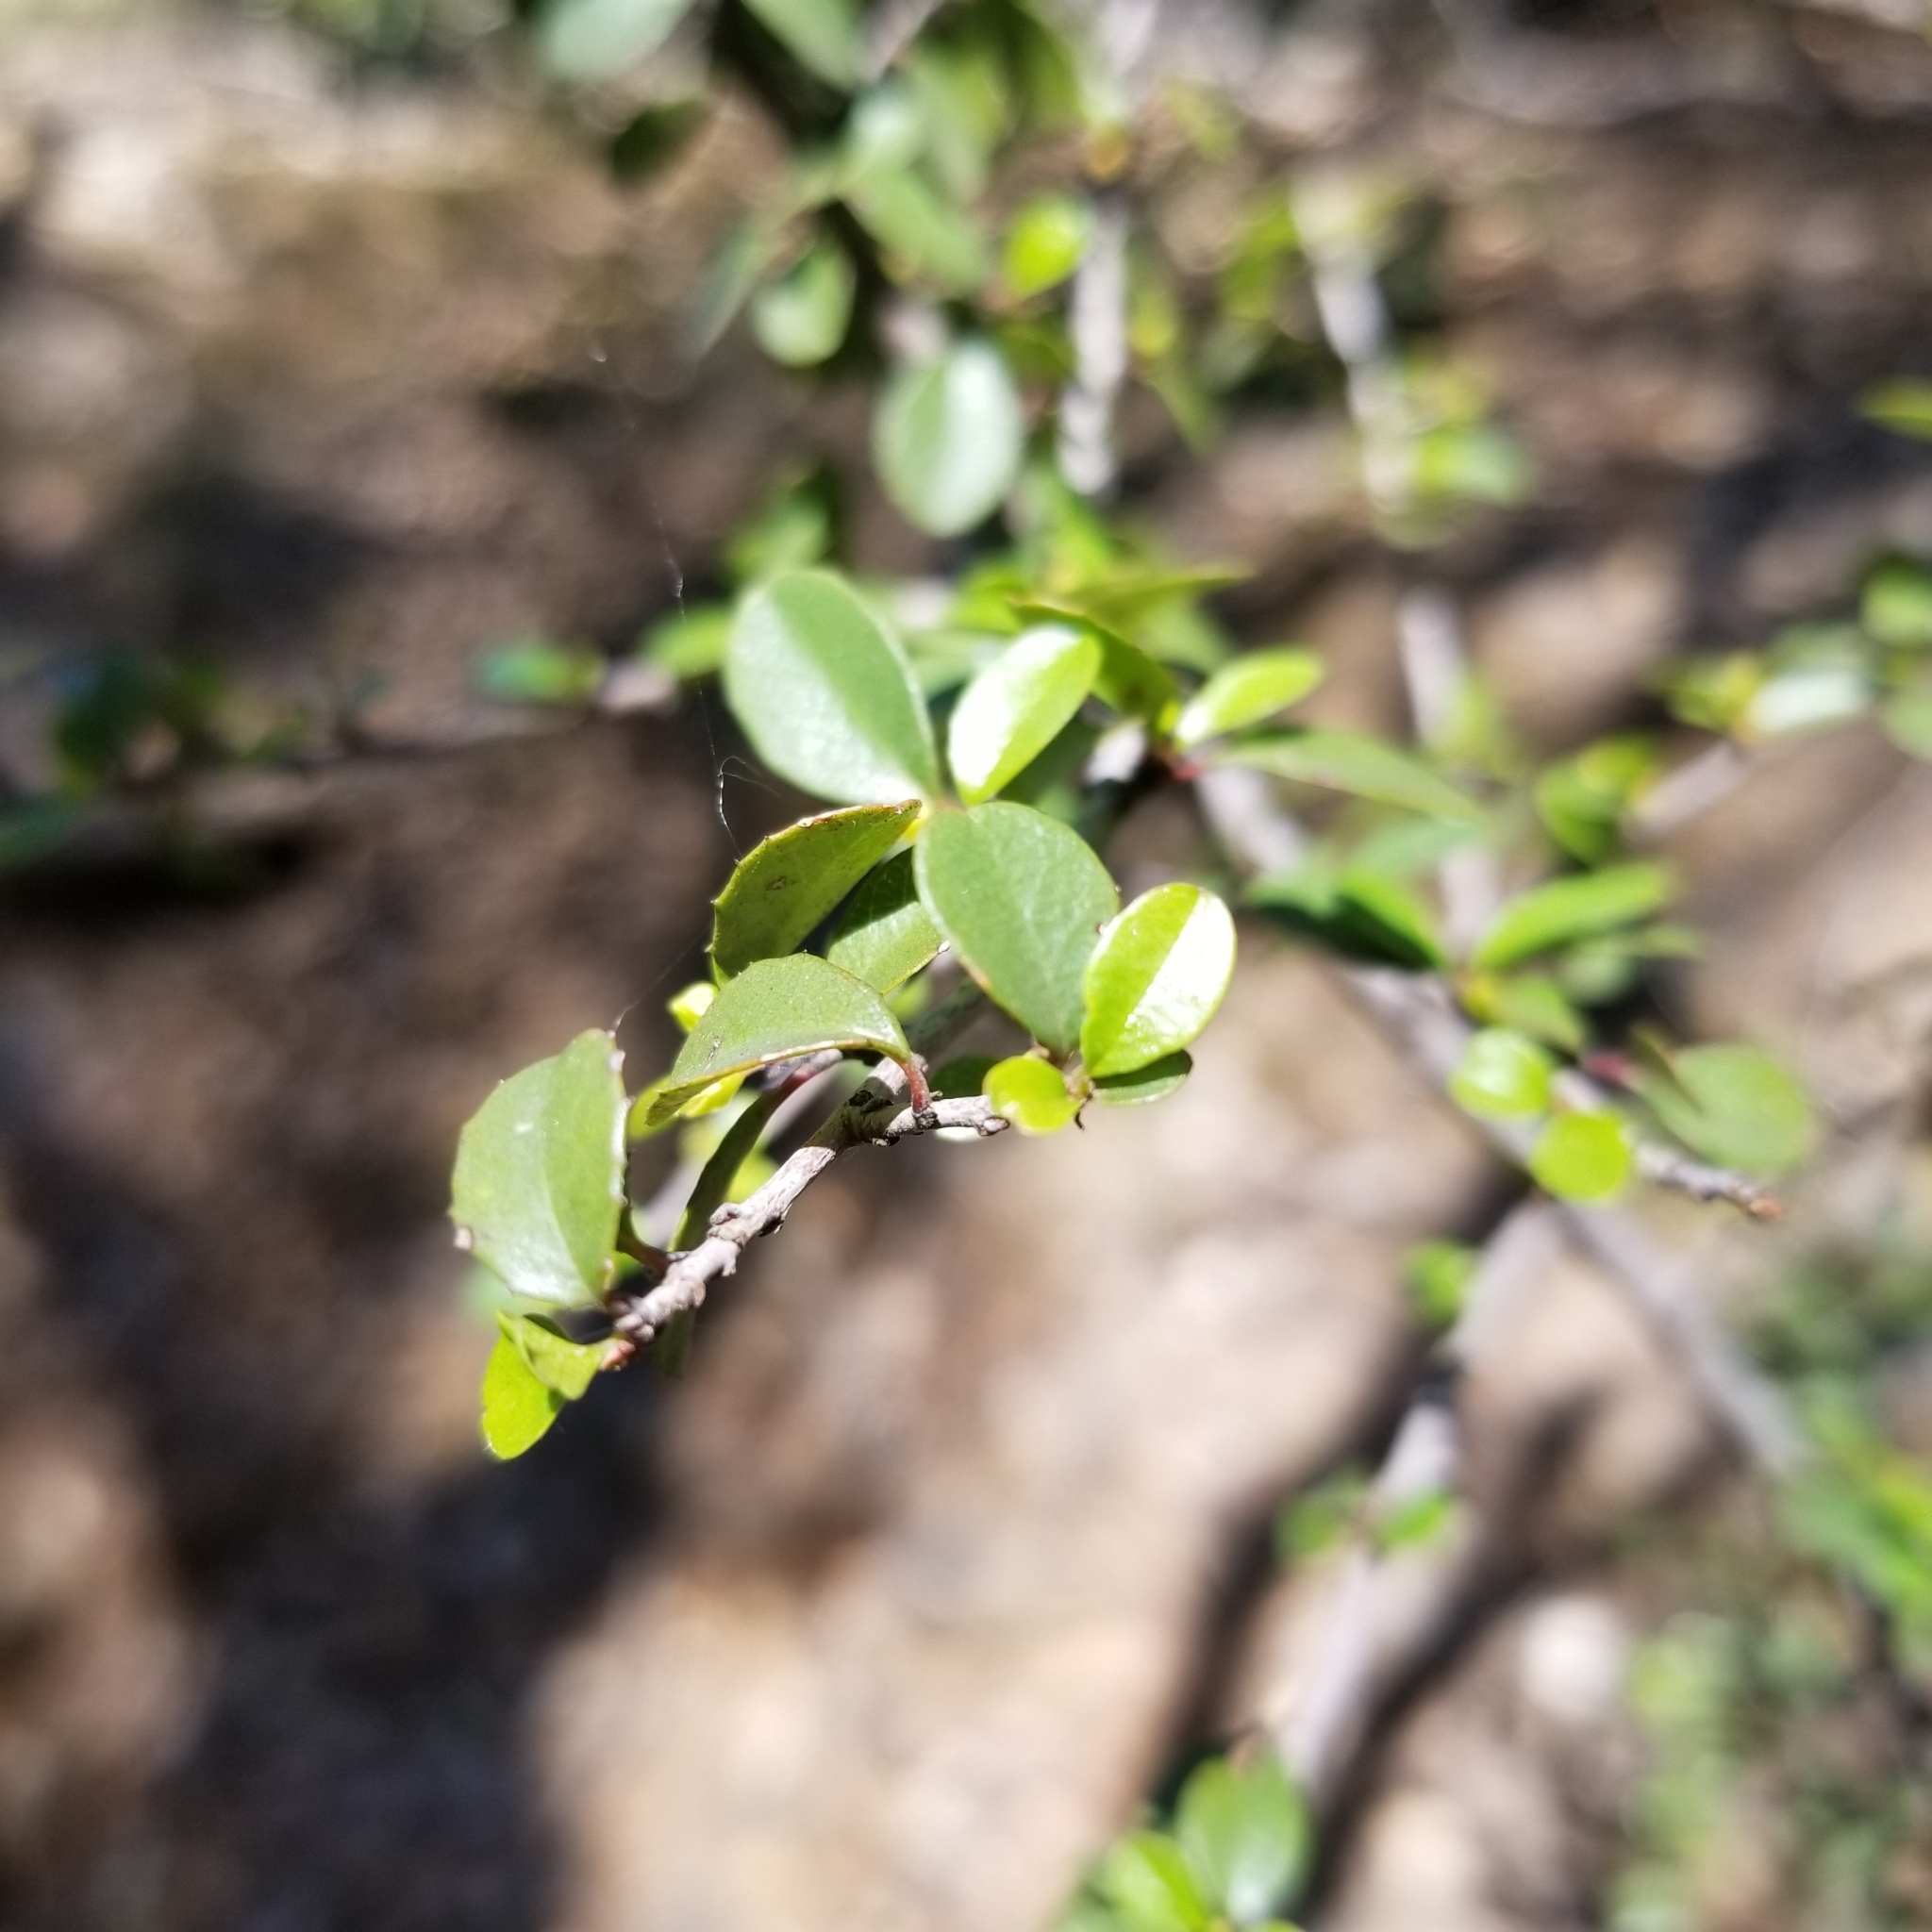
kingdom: Plantae
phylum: Tracheophyta
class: Magnoliopsida
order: Rosales
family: Rhamnaceae
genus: Endotropis
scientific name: Endotropis crocea
